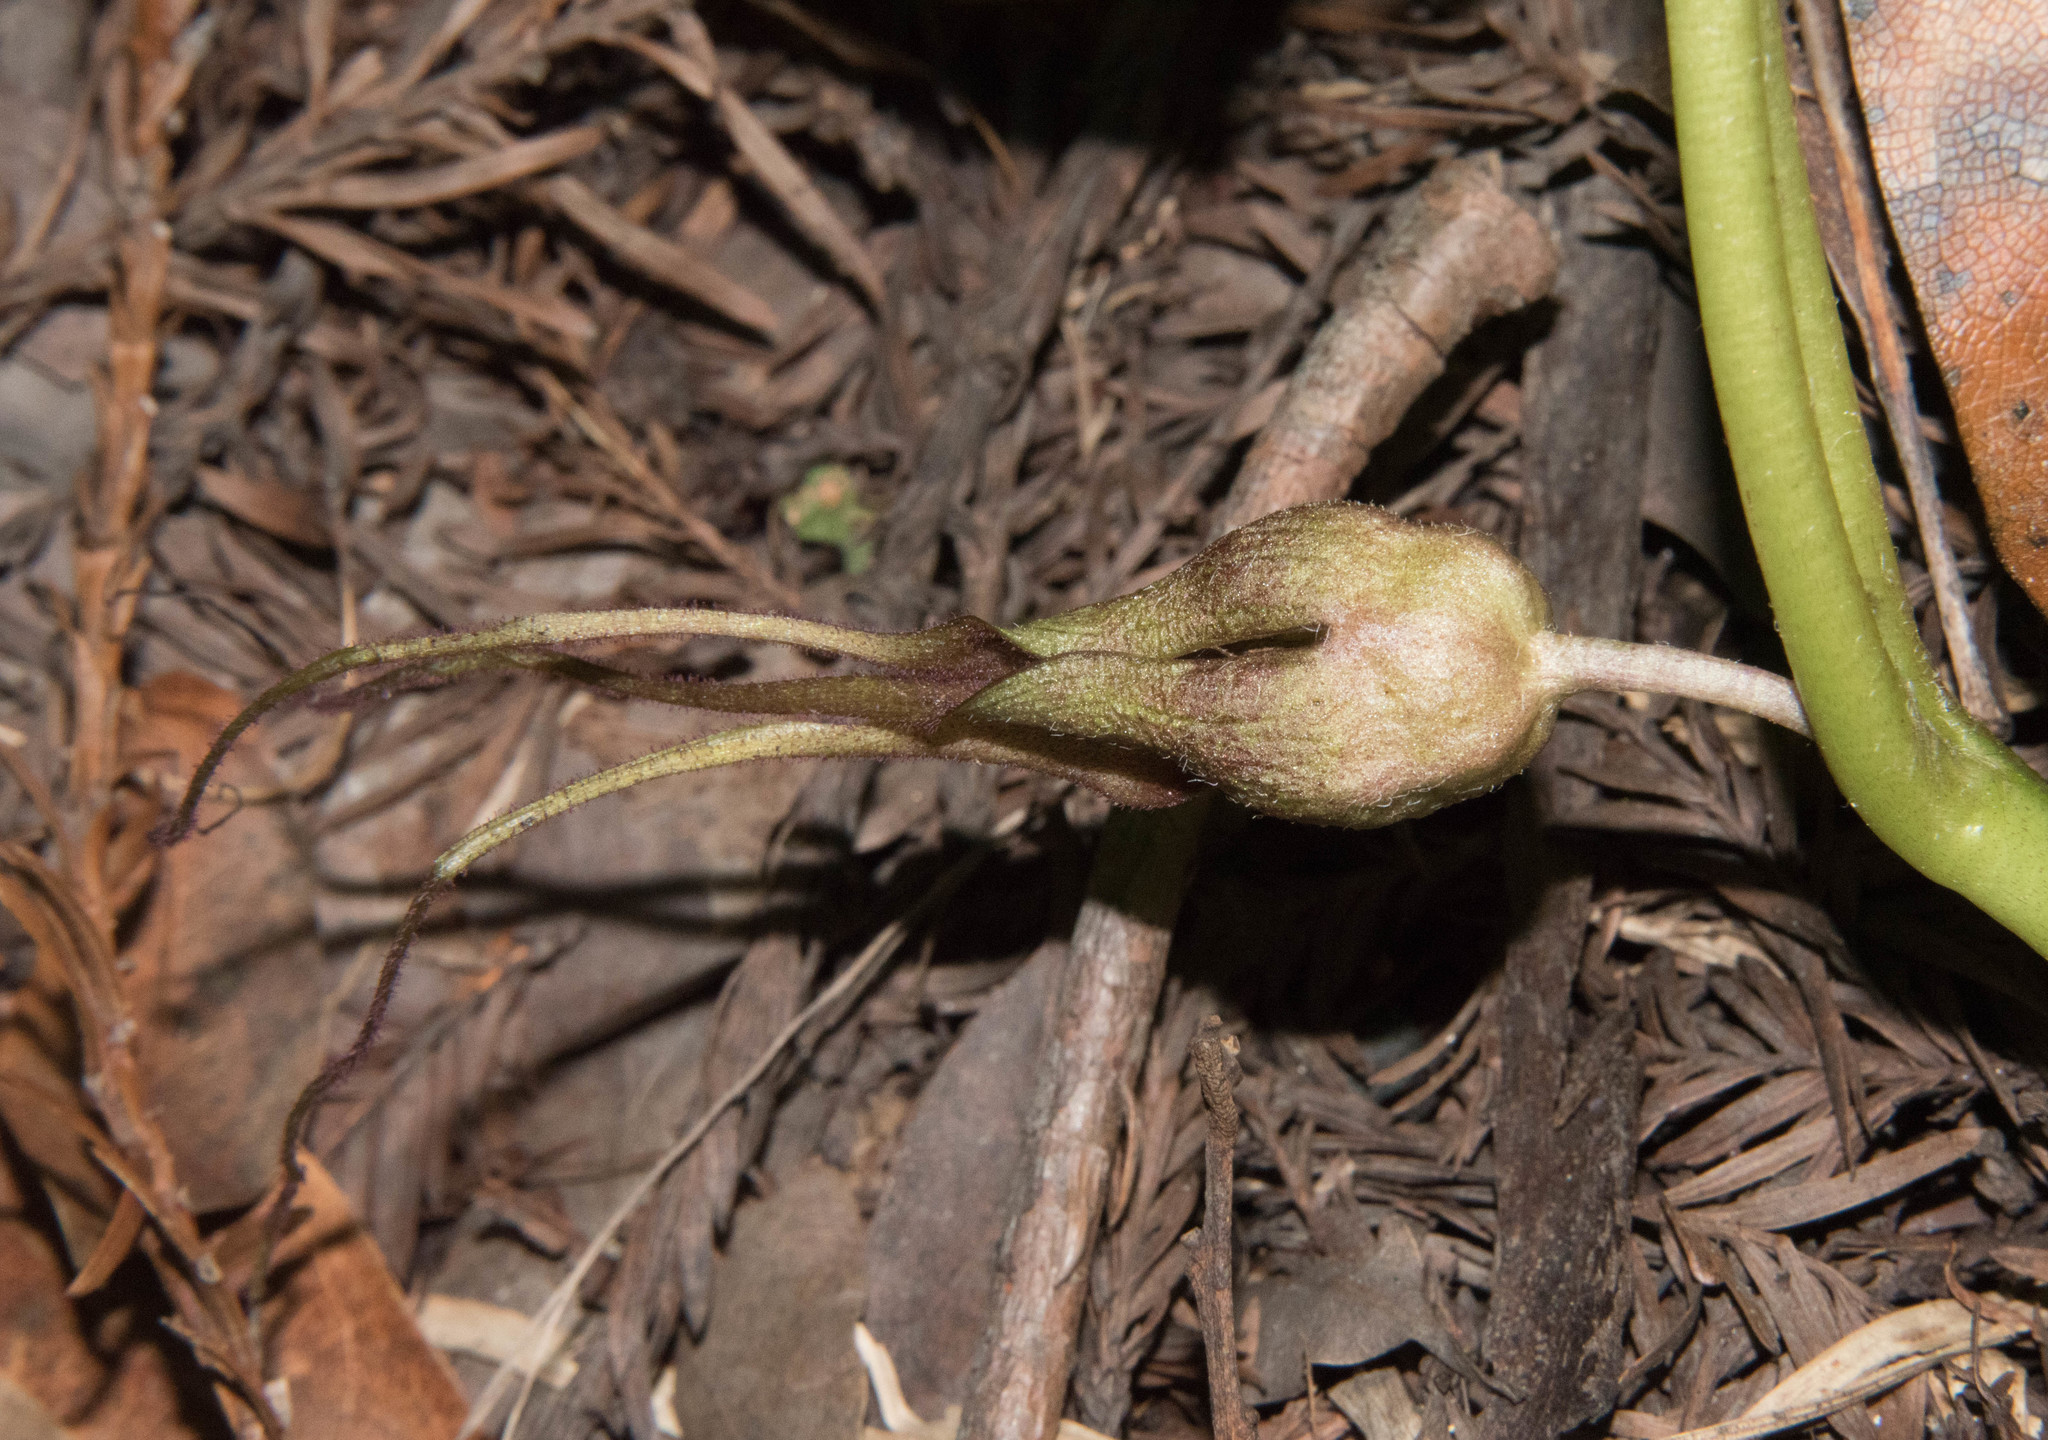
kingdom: Plantae
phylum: Tracheophyta
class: Magnoliopsida
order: Piperales
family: Aristolochiaceae
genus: Asarum
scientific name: Asarum caudatum
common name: Wild ginger
